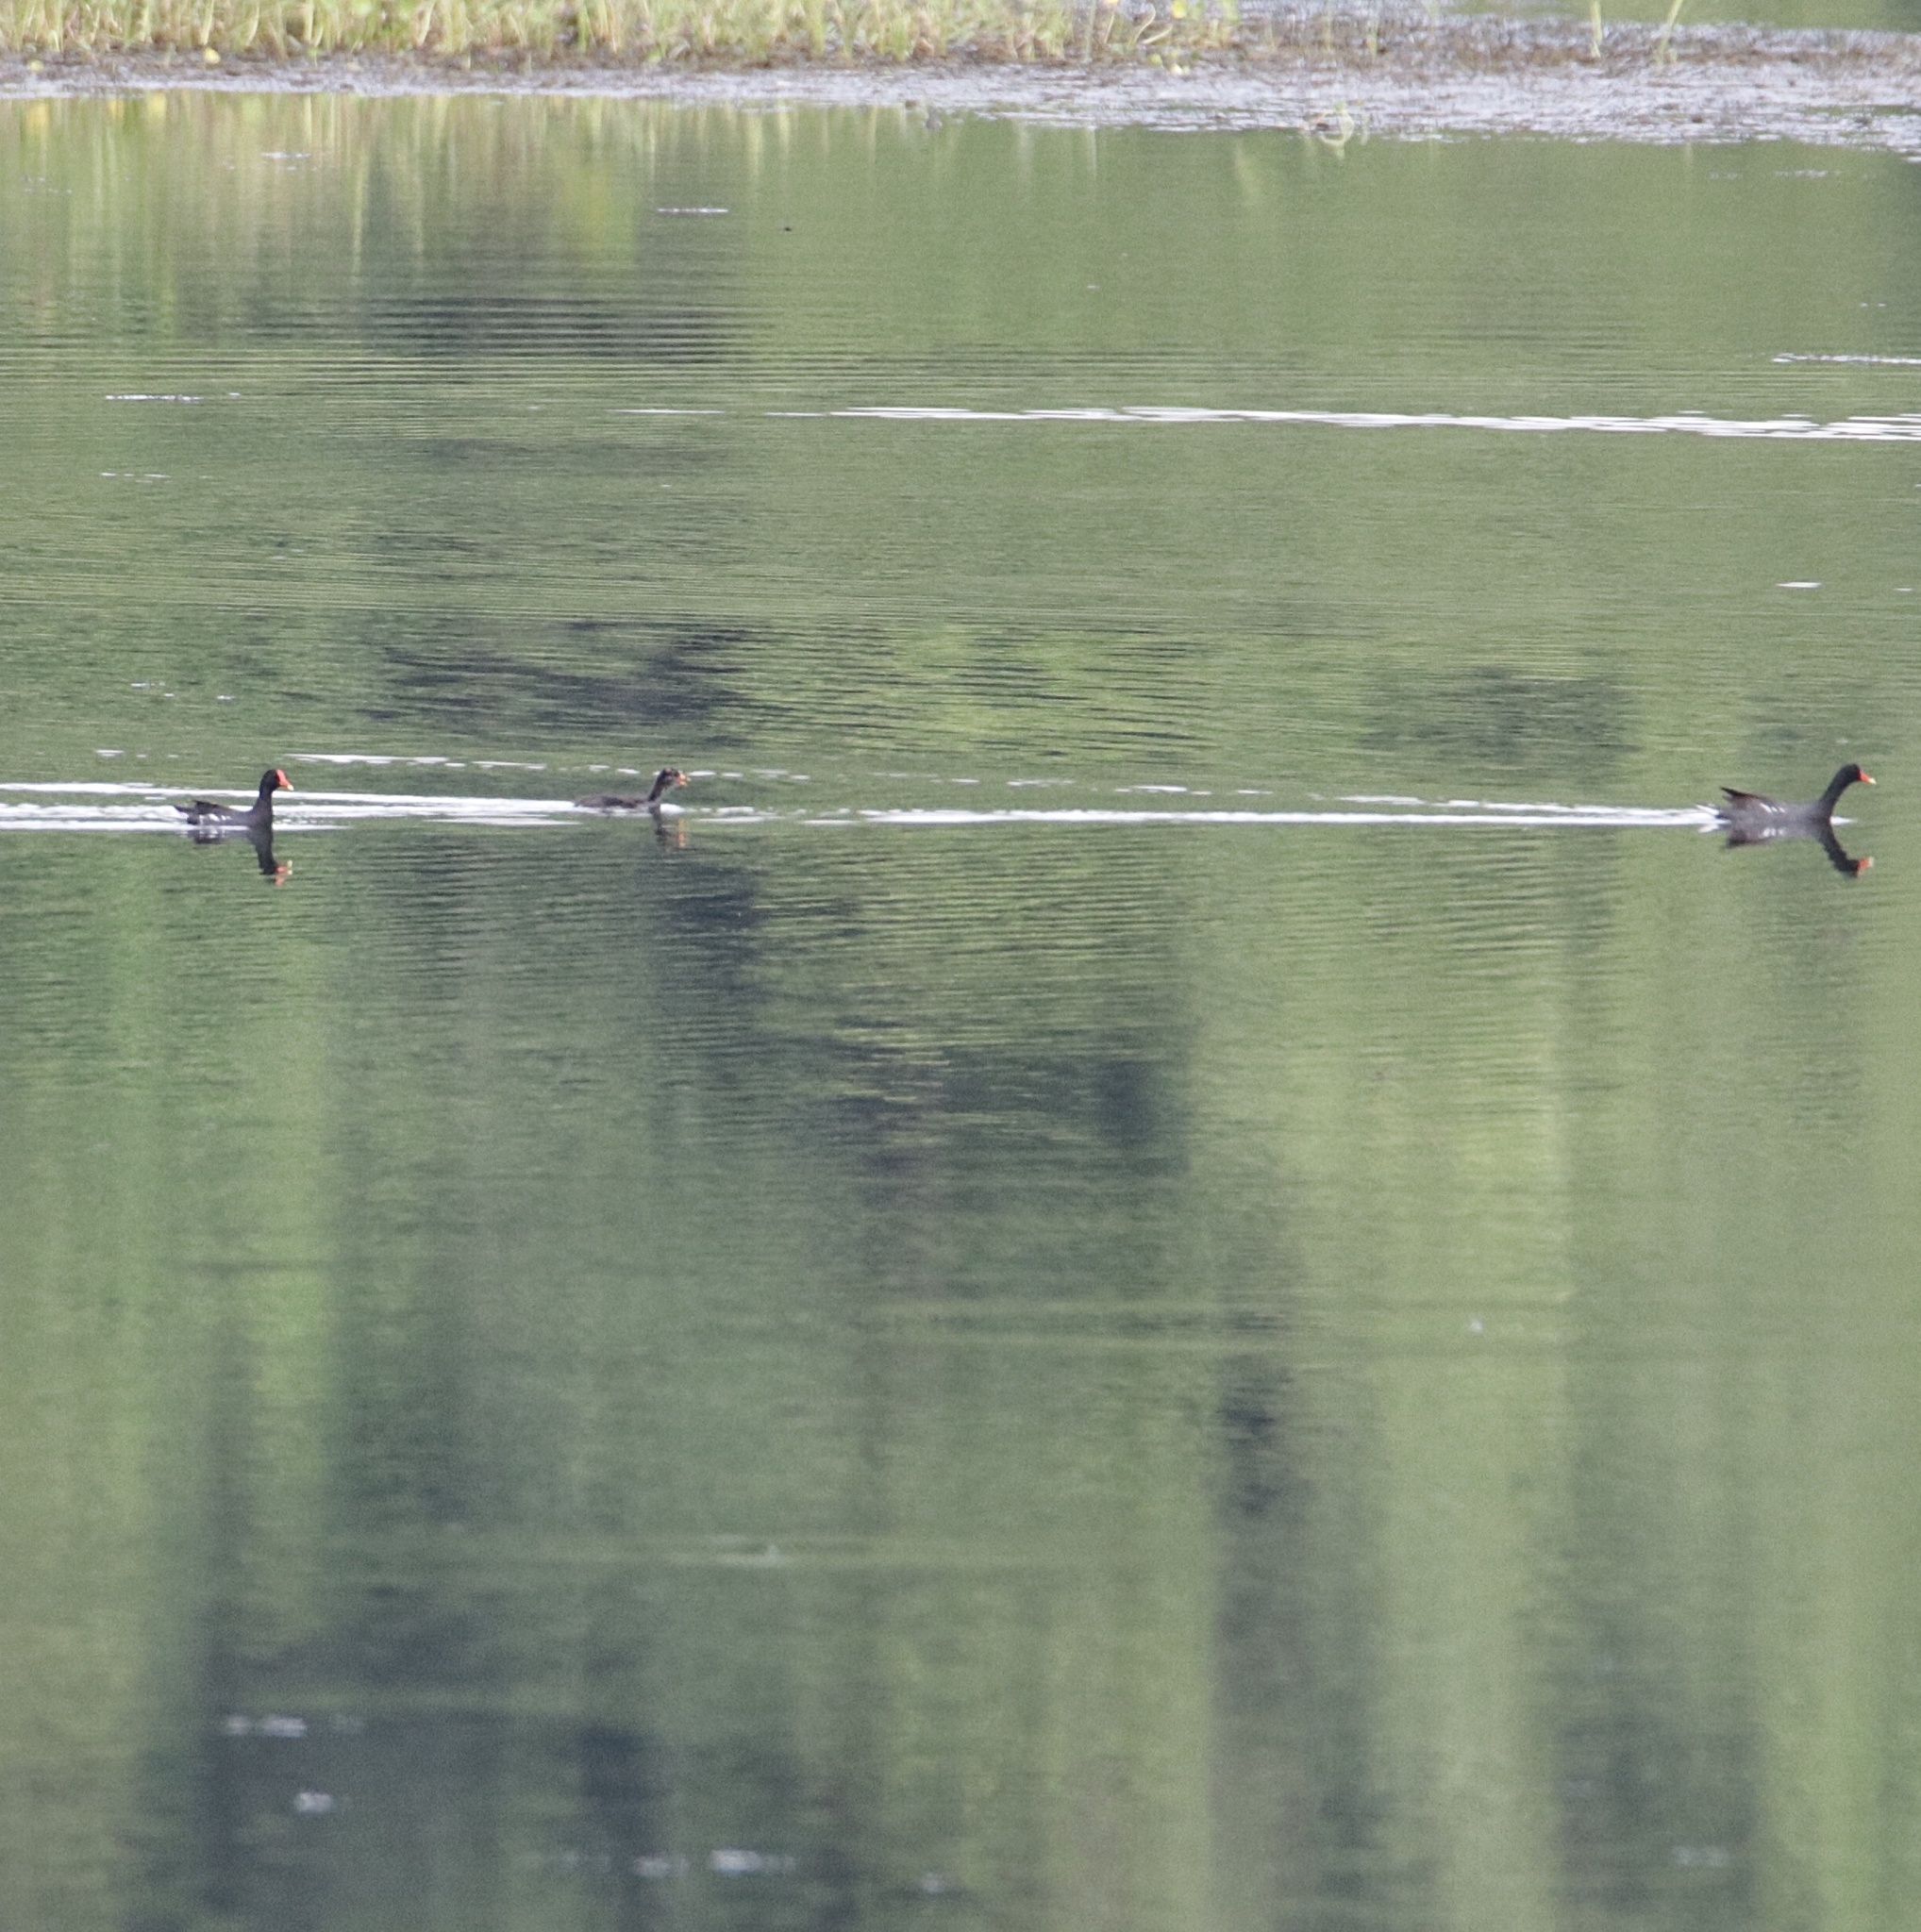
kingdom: Animalia
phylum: Chordata
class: Aves
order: Gruiformes
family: Rallidae
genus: Gallinula
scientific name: Gallinula chloropus
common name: Common moorhen
